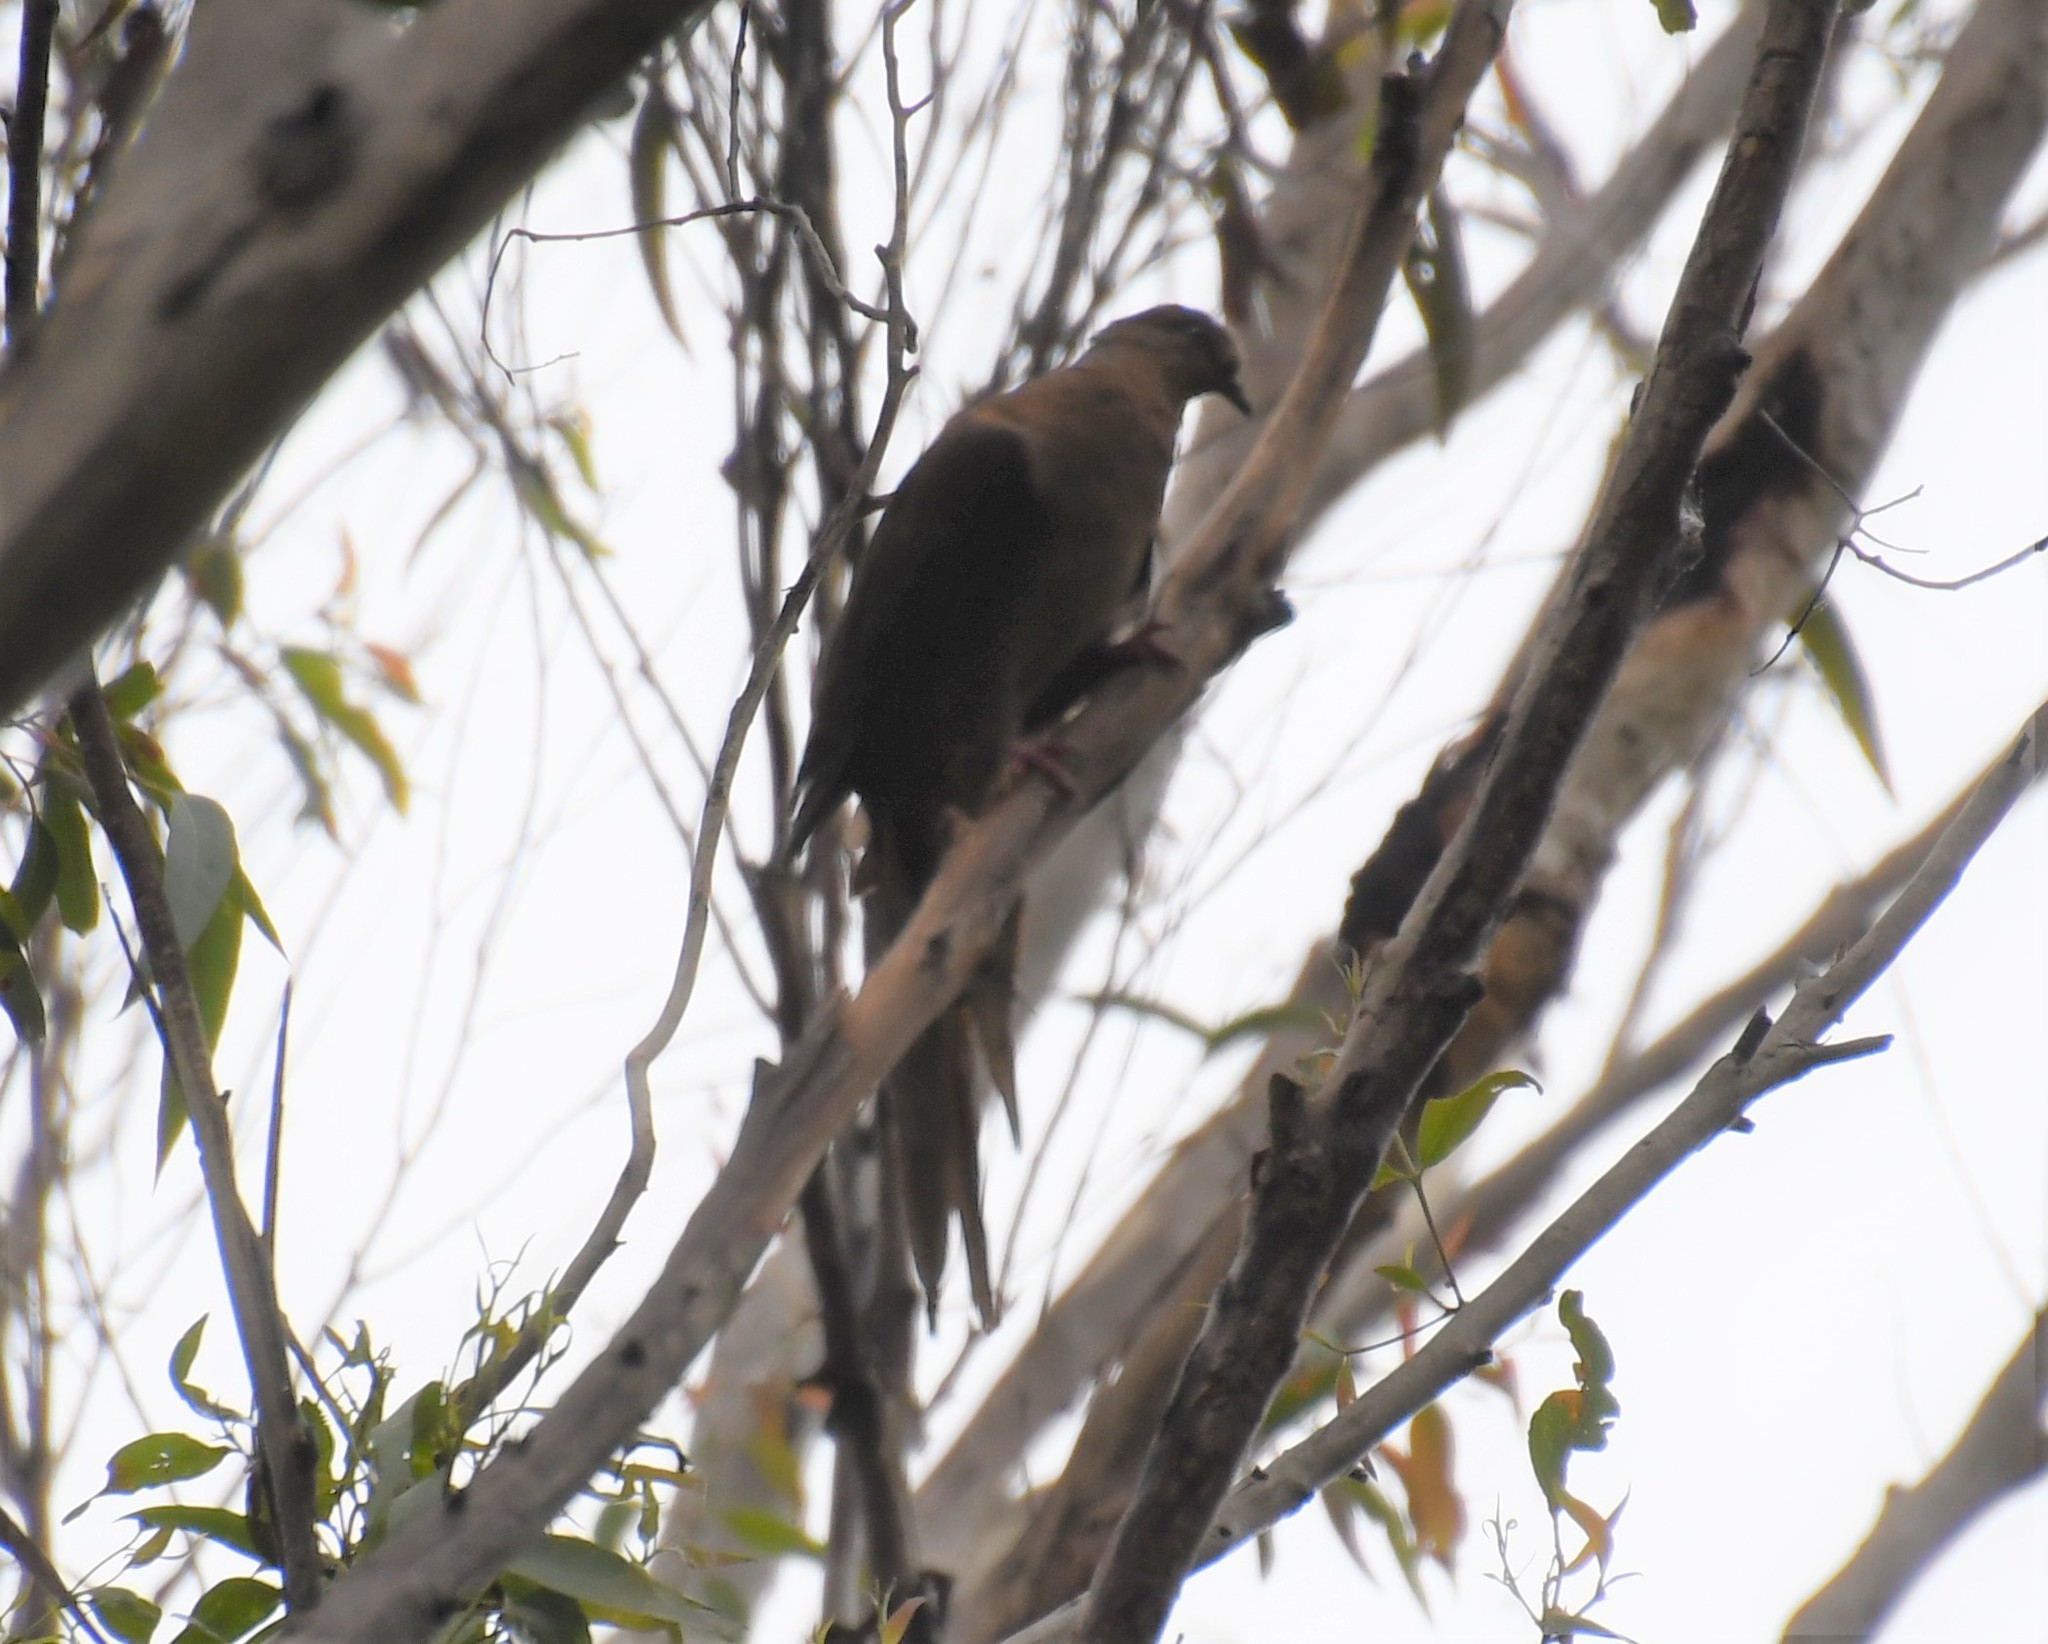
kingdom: Animalia
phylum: Chordata
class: Aves
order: Columbiformes
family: Columbidae
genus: Macropygia
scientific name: Macropygia phasianella
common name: Brown cuckoo-dove
